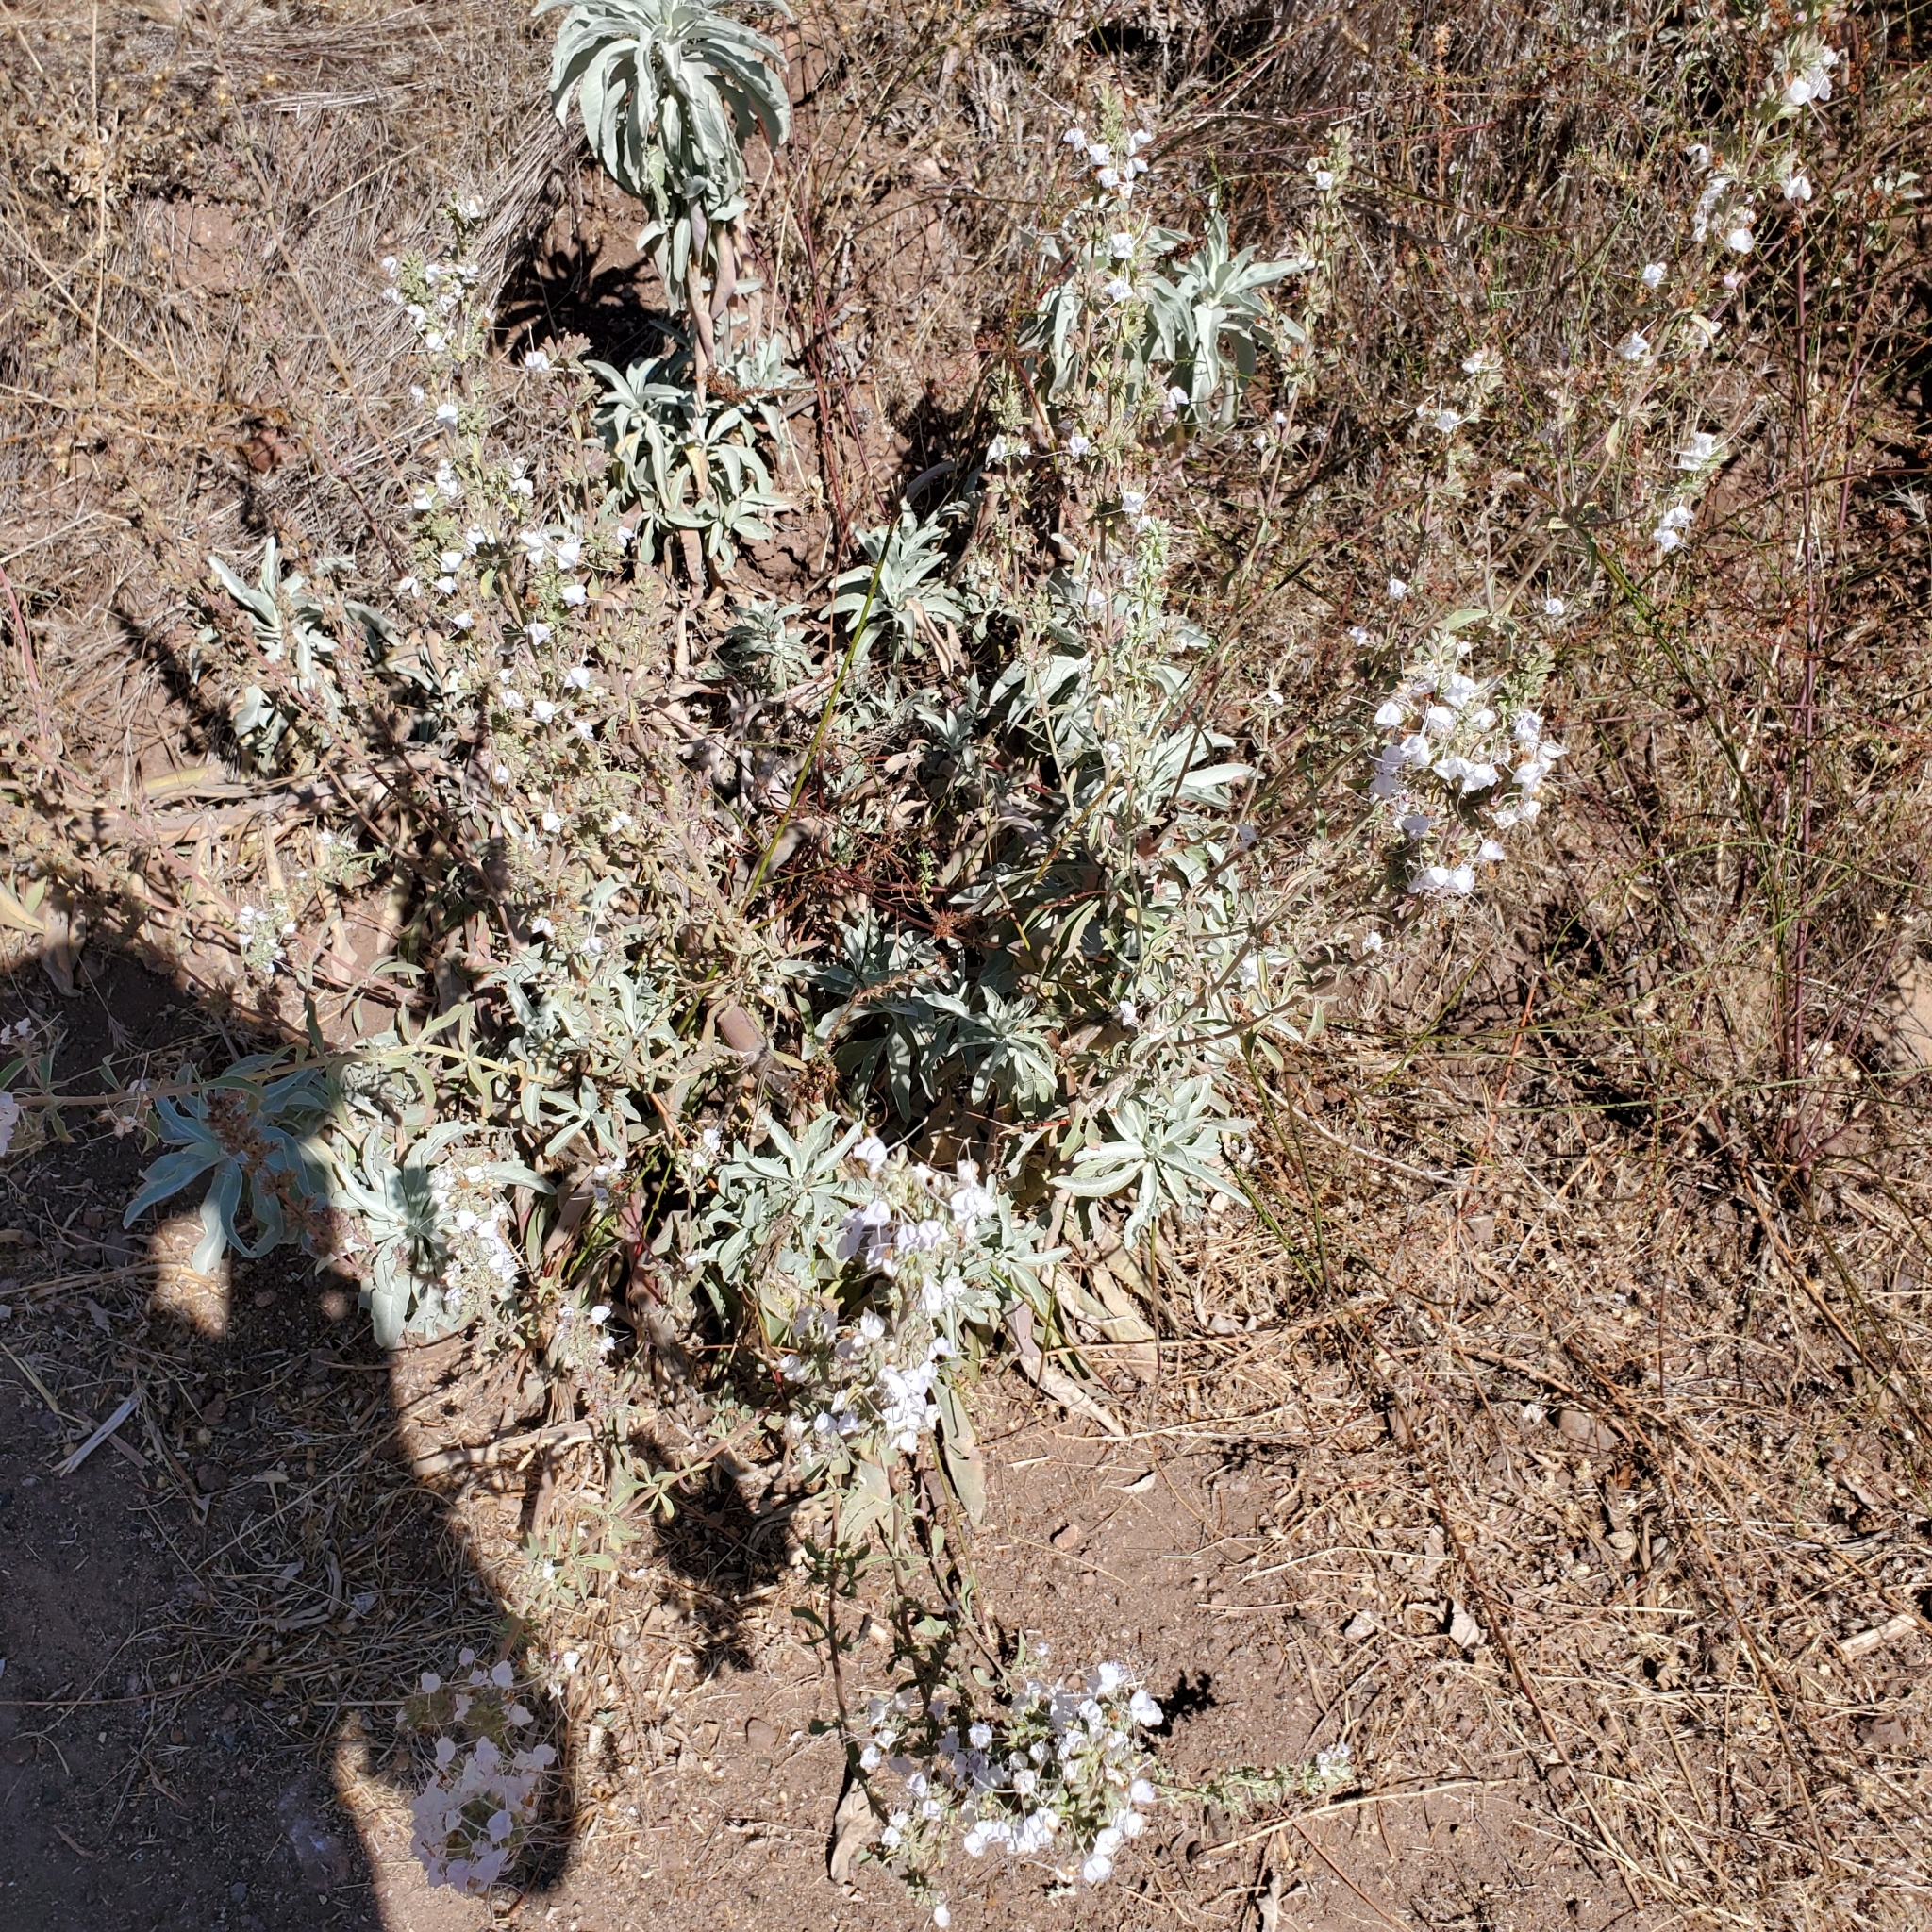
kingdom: Plantae
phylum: Tracheophyta
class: Magnoliopsida
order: Lamiales
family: Lamiaceae
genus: Salvia
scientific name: Salvia apiana
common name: White sage
